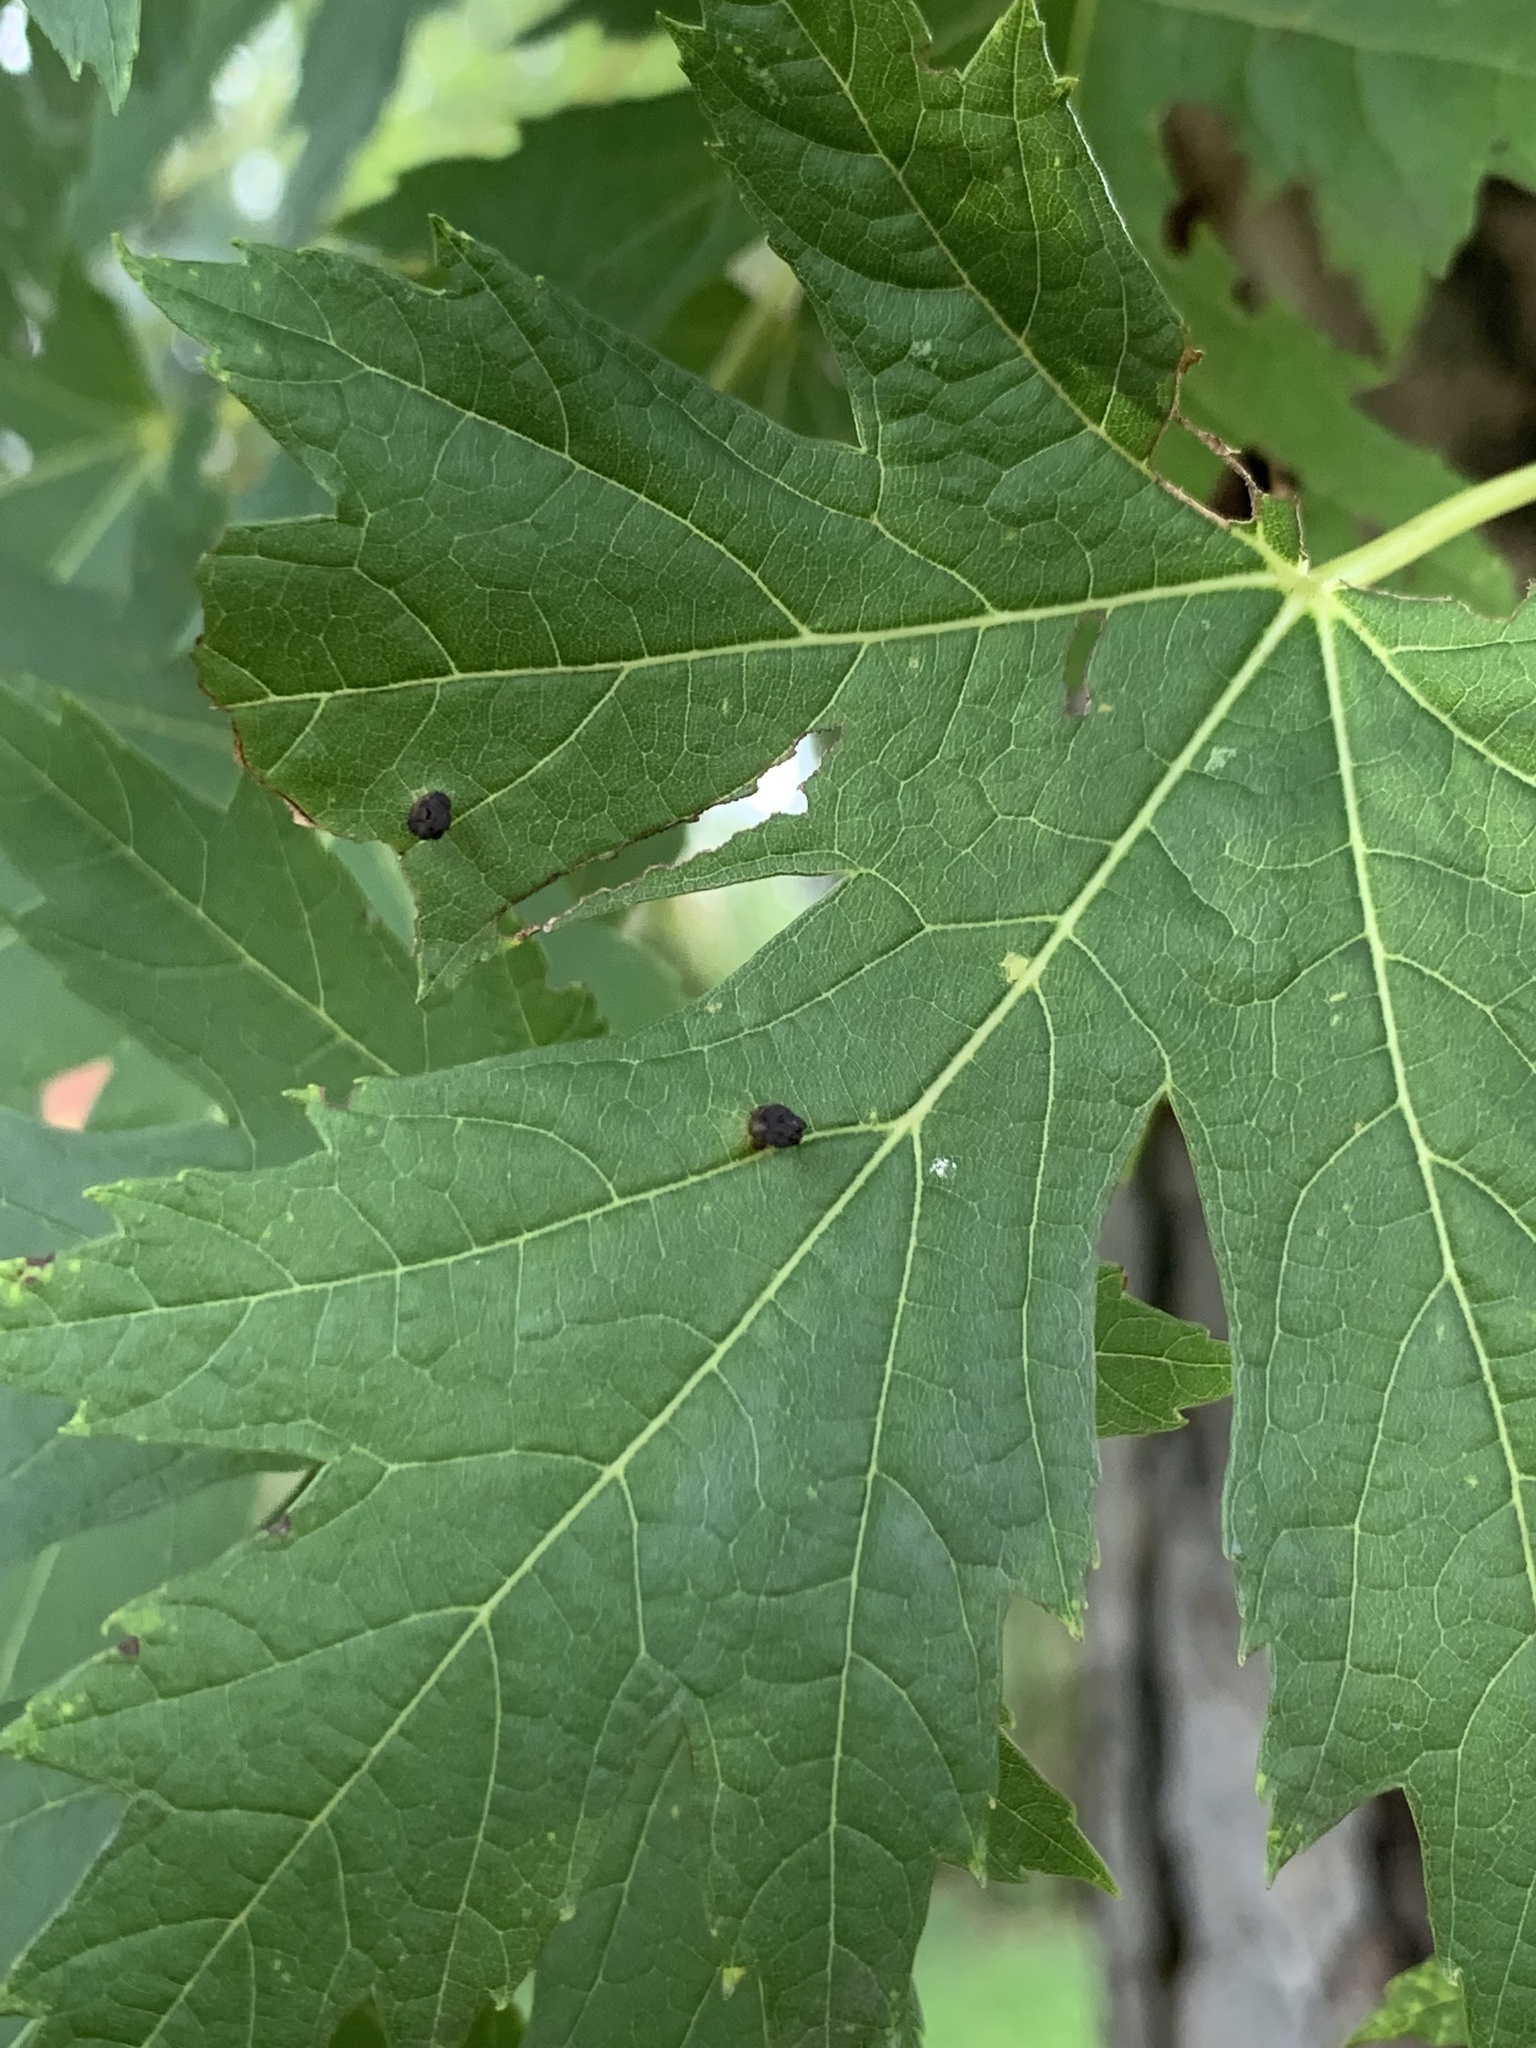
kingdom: Animalia
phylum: Arthropoda
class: Arachnida
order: Trombidiformes
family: Eriophyidae
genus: Vasates
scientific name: Vasates quadripedes
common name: Maple bladder gall mite
